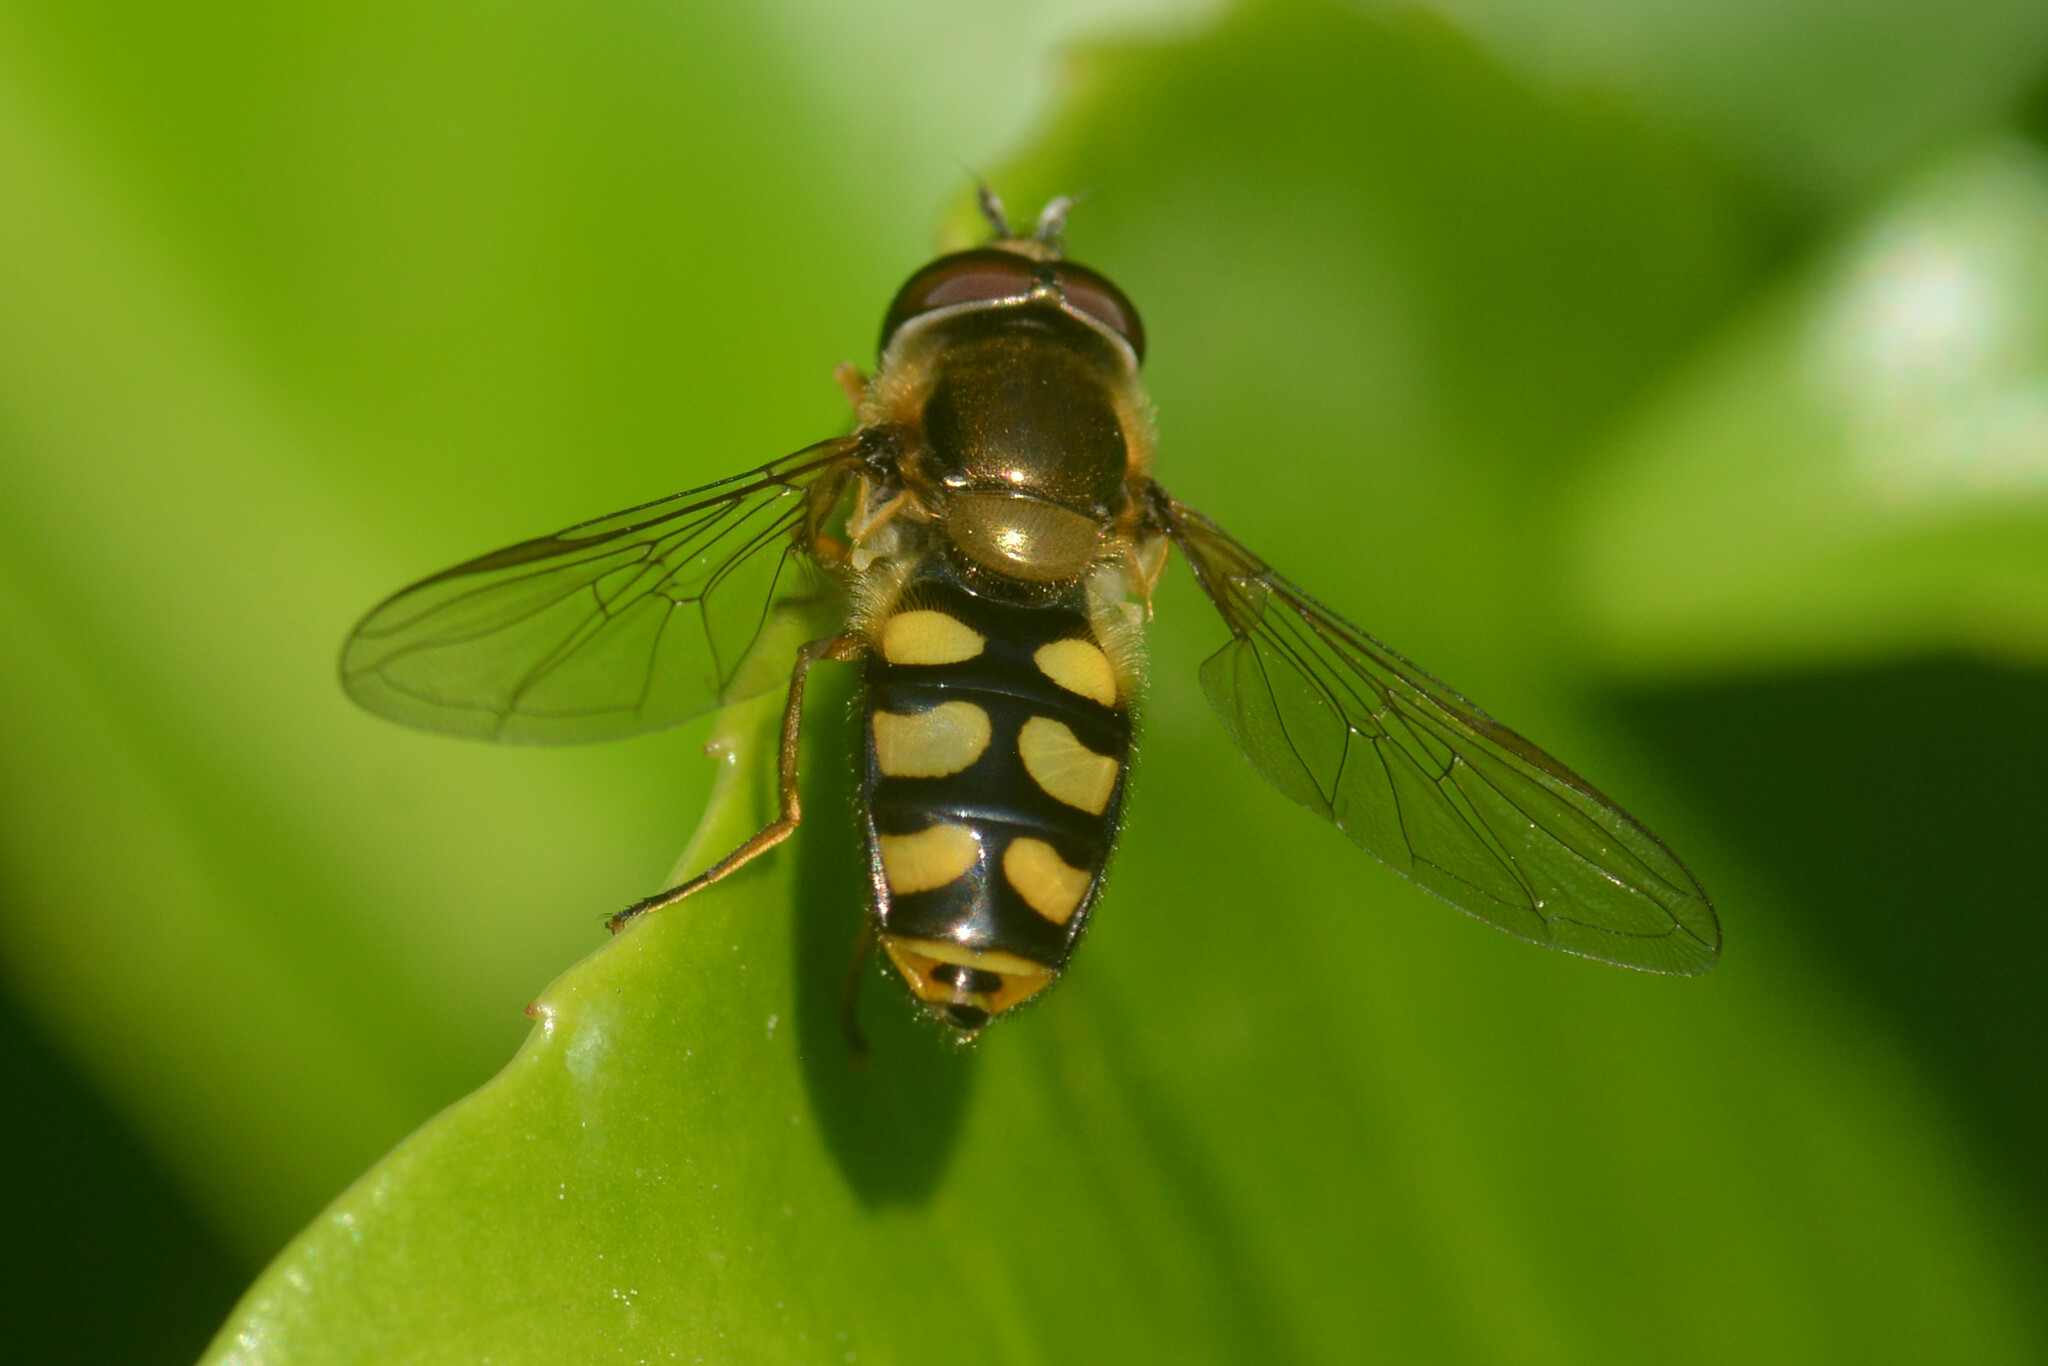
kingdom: Animalia
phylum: Arthropoda
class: Insecta
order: Diptera
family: Syrphidae
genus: Eupeodes
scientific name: Eupeodes
